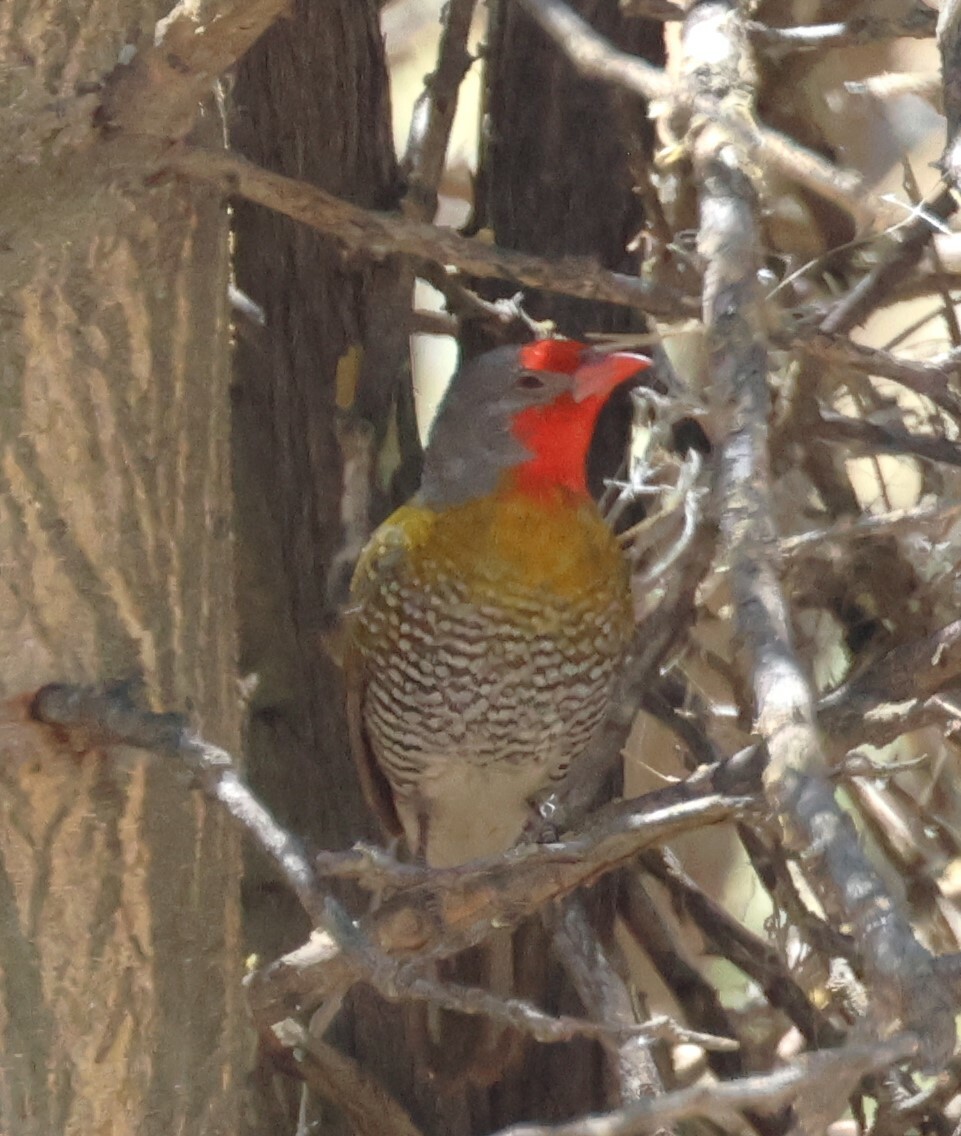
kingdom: Animalia
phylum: Chordata
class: Aves
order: Passeriformes
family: Estrildidae
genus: Pytilia
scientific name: Pytilia melba
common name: Green-winged pytilia
